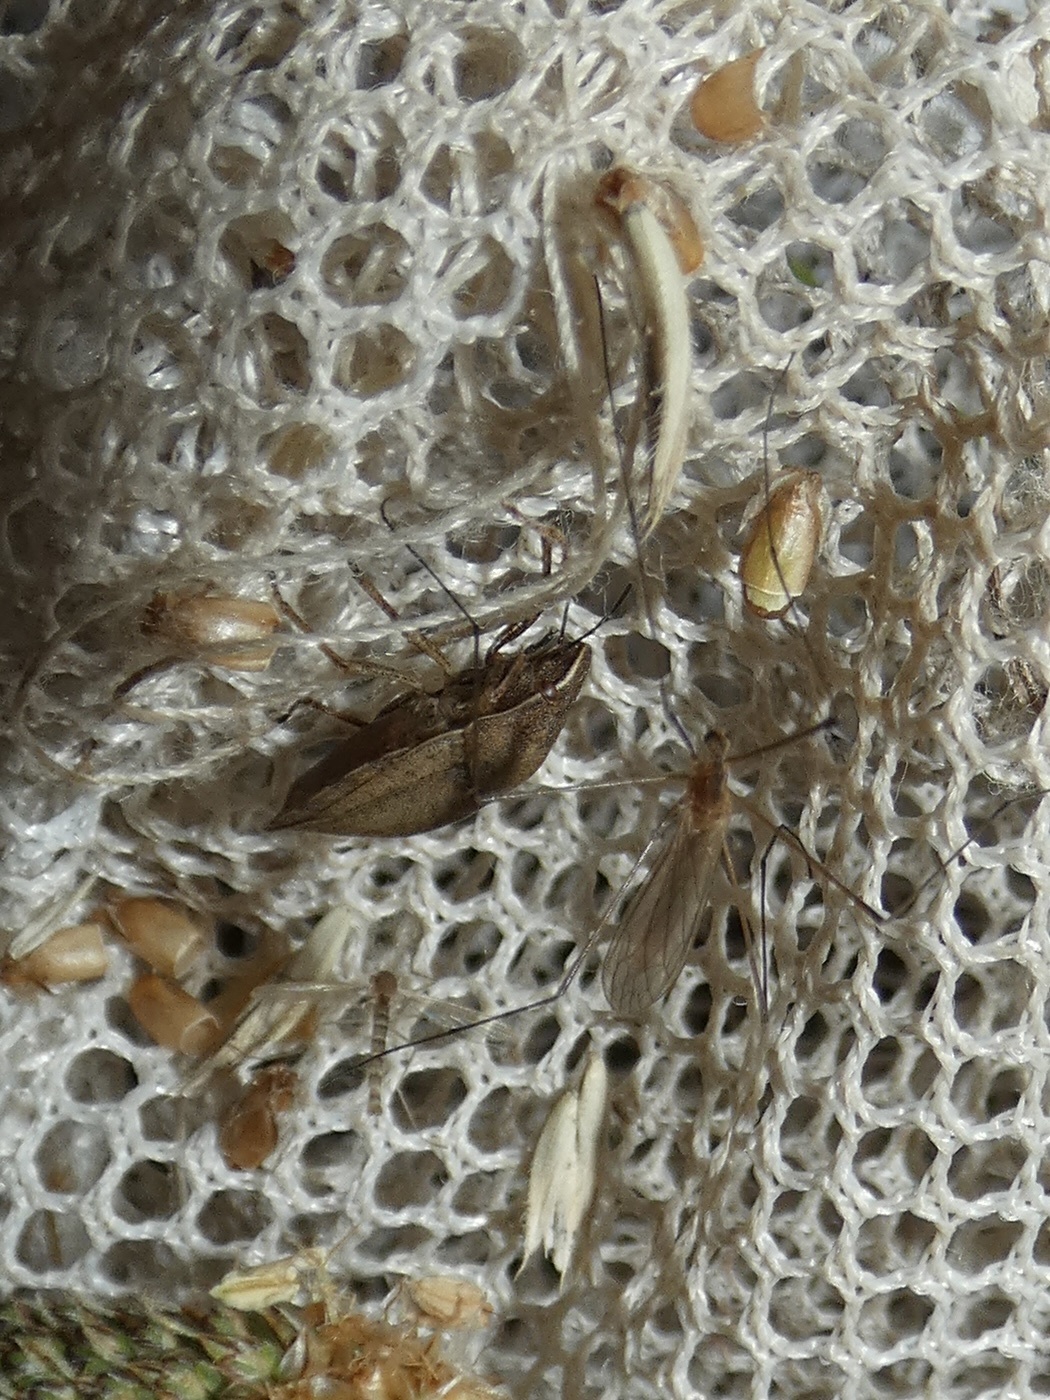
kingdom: Animalia
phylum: Arthropoda
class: Insecta
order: Hemiptera
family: Scutelleridae
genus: Eurygaster
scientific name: Eurygaster testudinaria
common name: Tortoise bug
